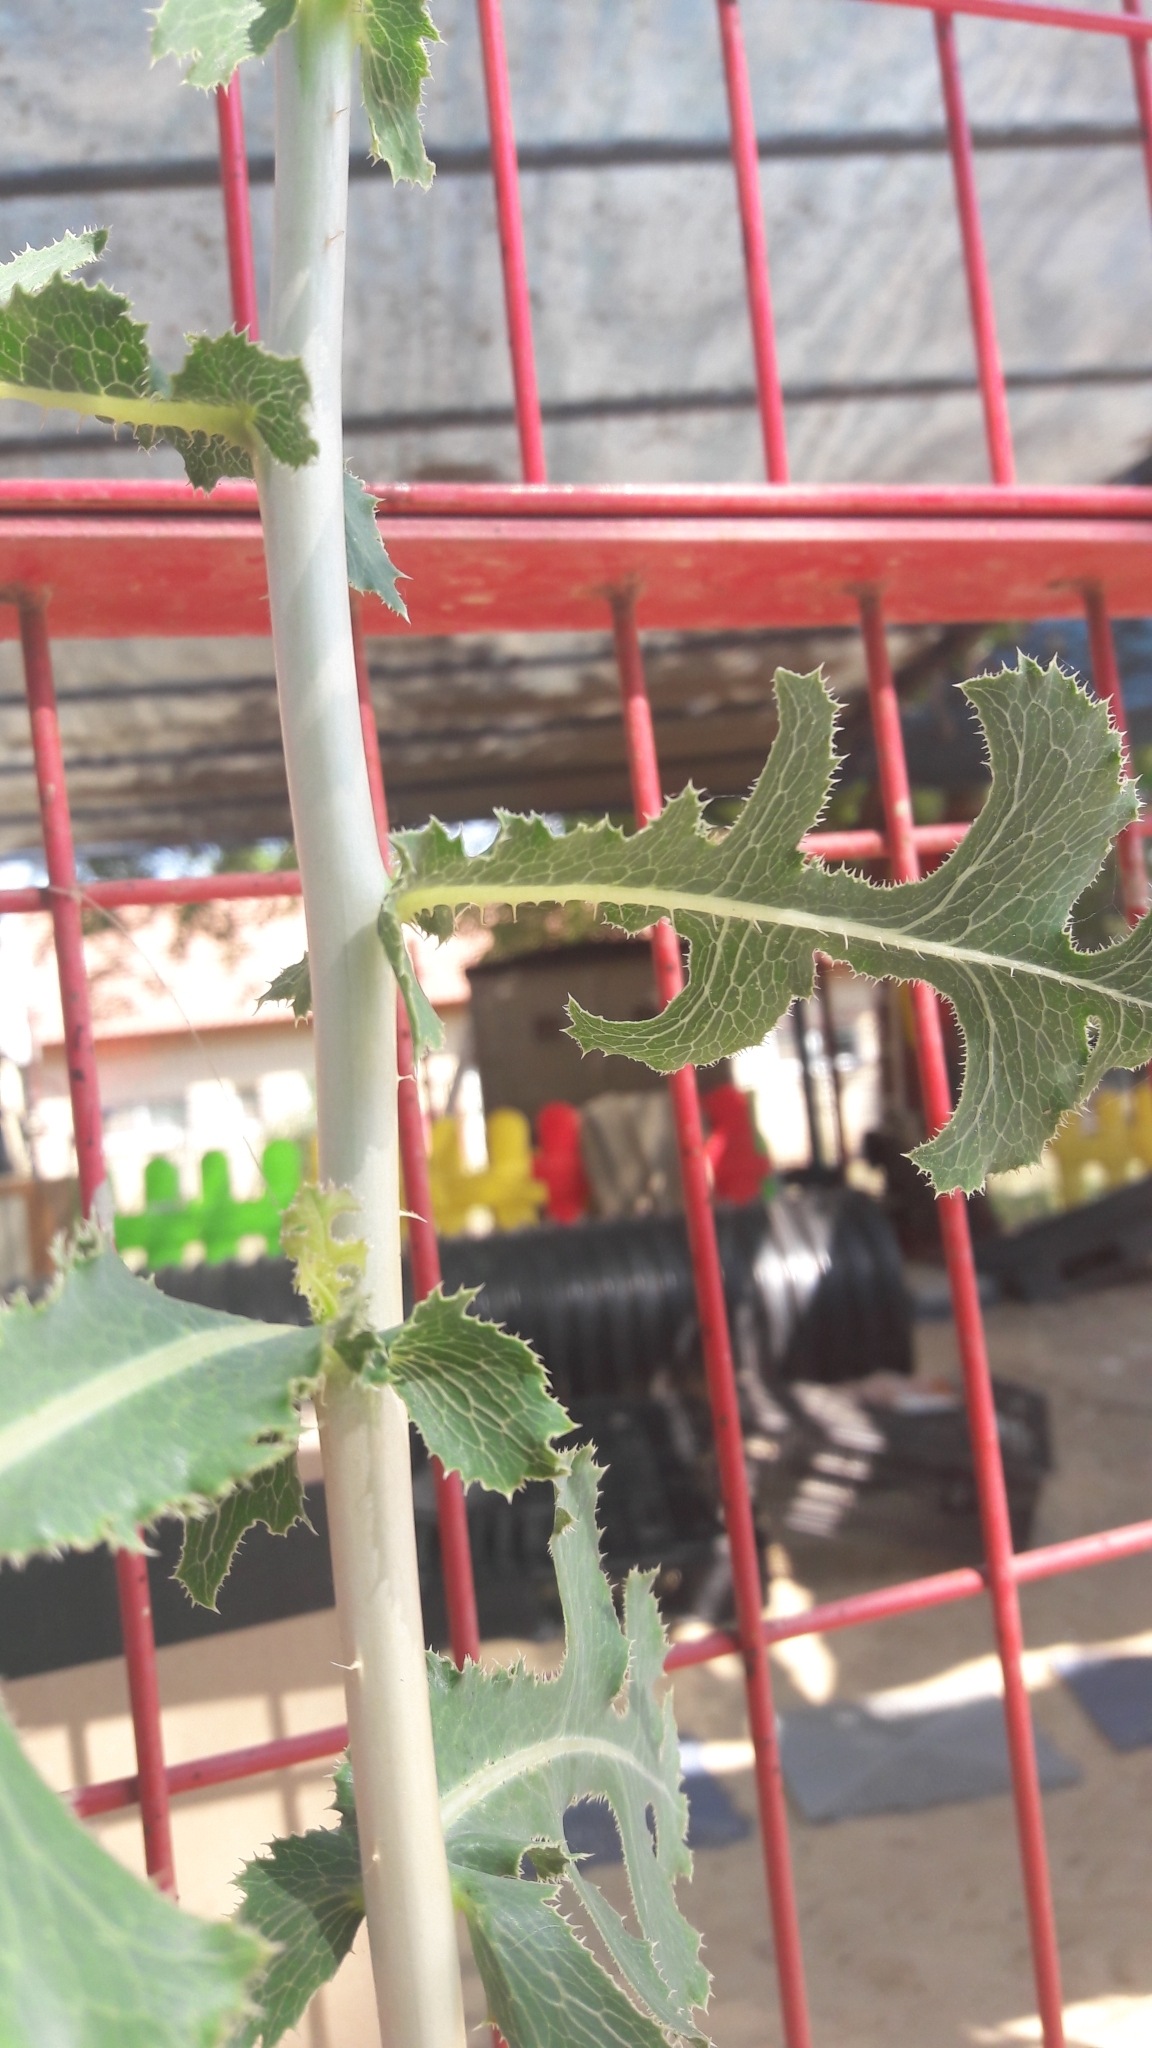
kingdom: Plantae
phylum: Tracheophyta
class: Magnoliopsida
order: Asterales
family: Asteraceae
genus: Lactuca
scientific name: Lactuca serriola
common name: Prickly lettuce
